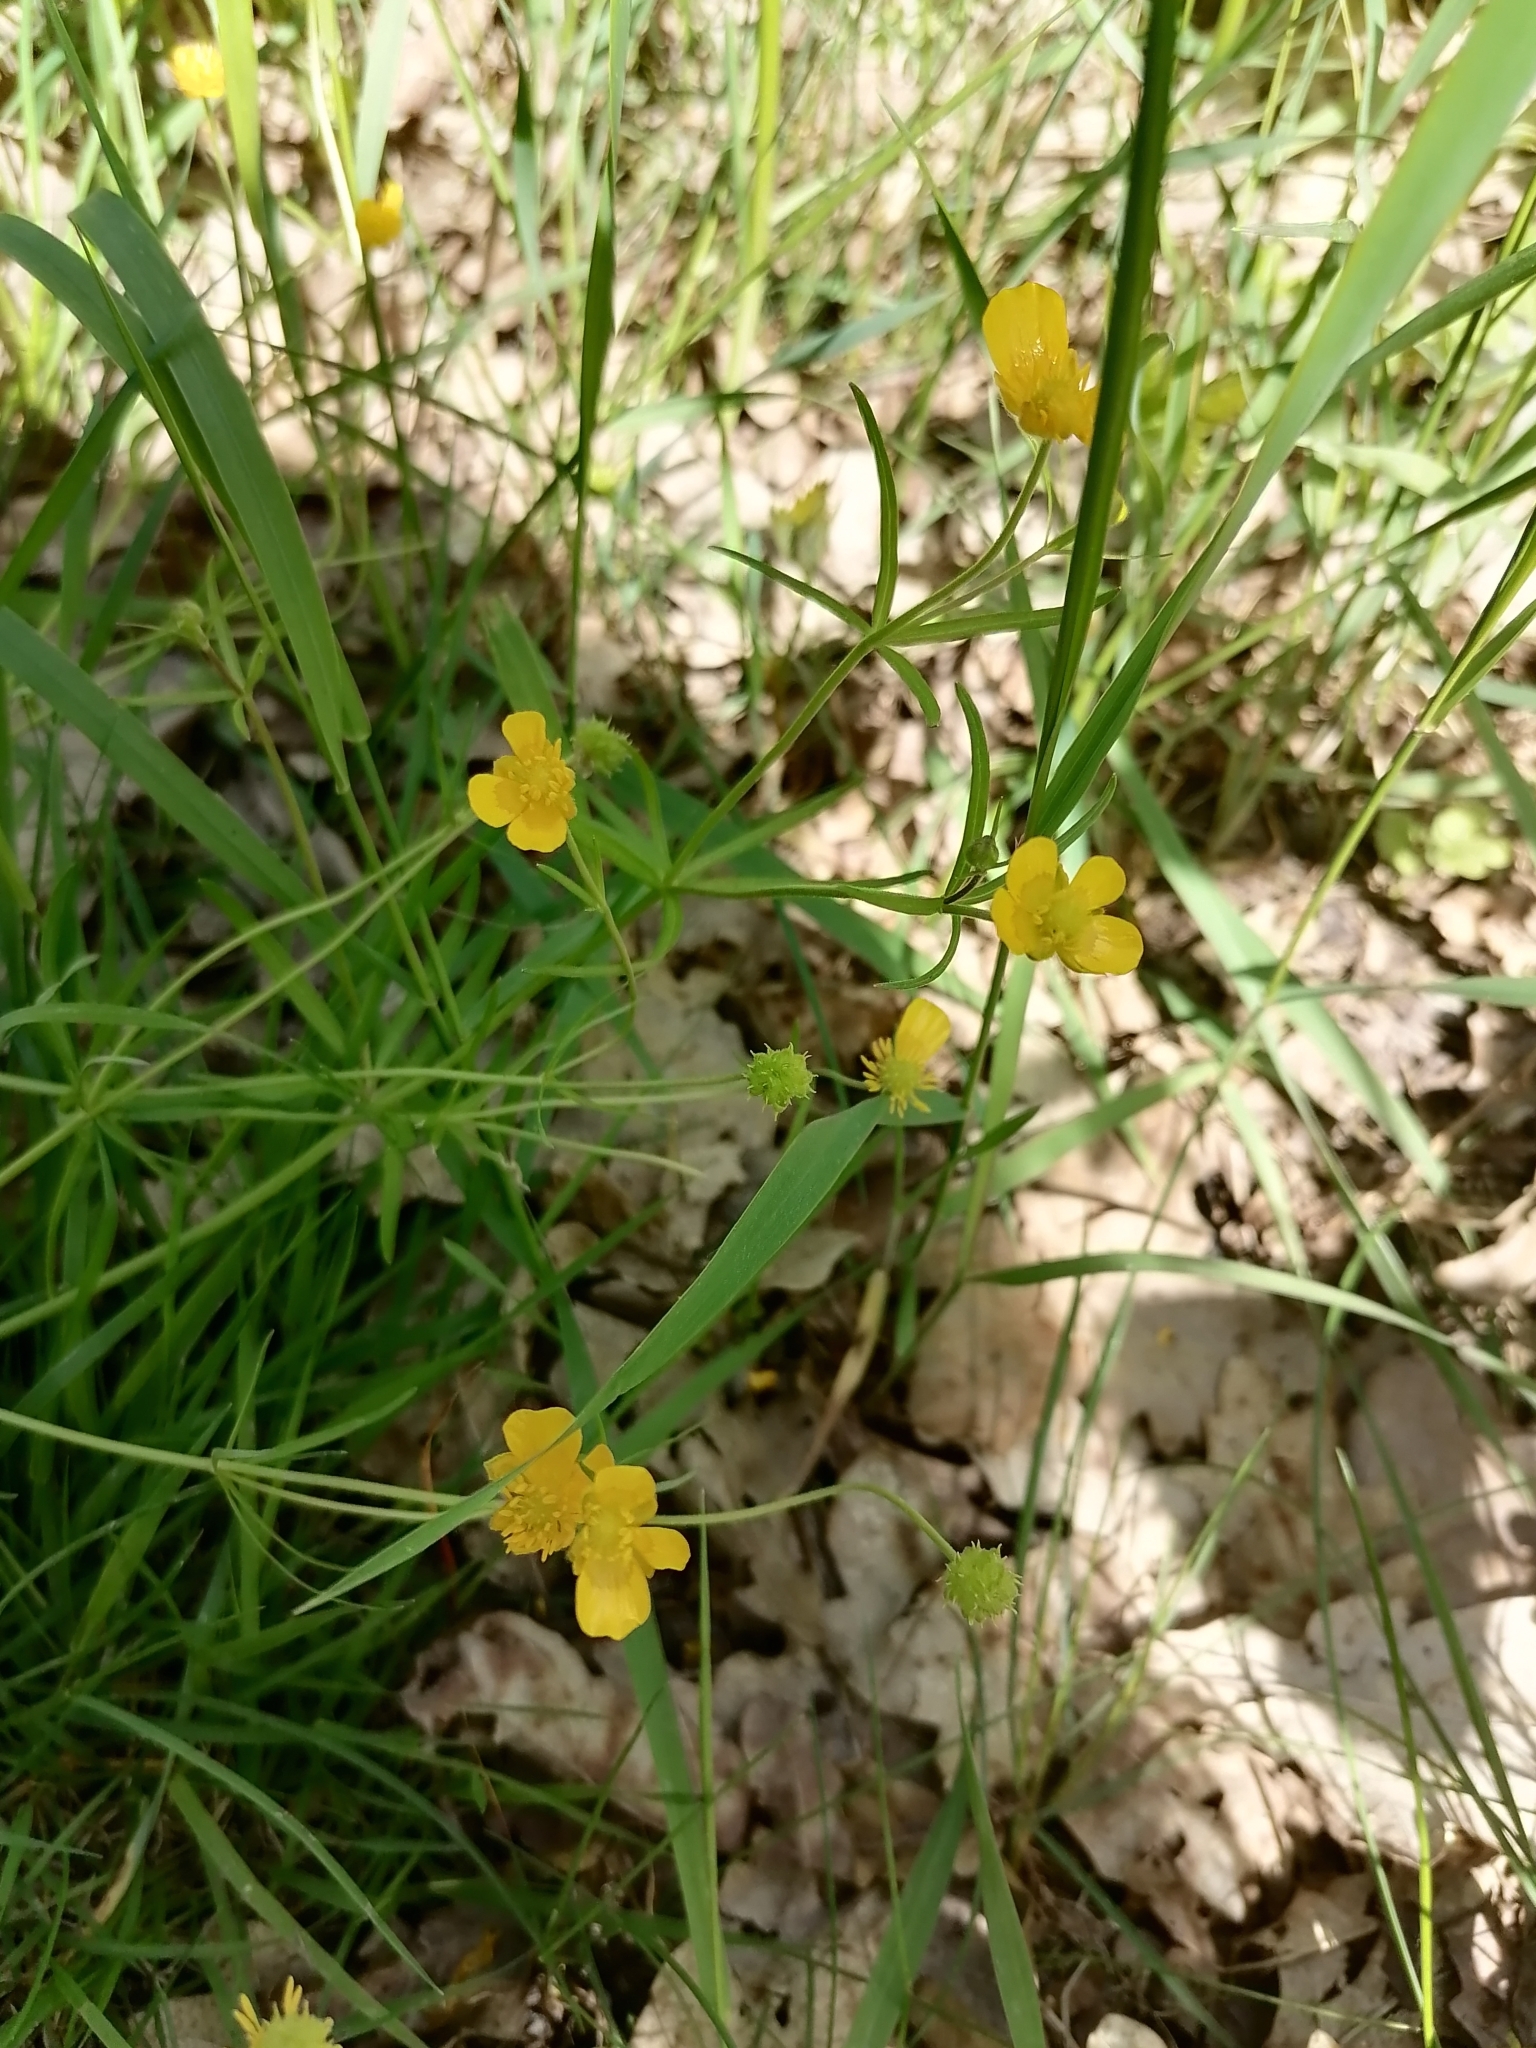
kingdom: Plantae
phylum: Tracheophyta
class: Magnoliopsida
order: Ranunculales
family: Ranunculaceae
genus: Ranunculus
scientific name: Ranunculus auricomus
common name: Goldilocks buttercup
